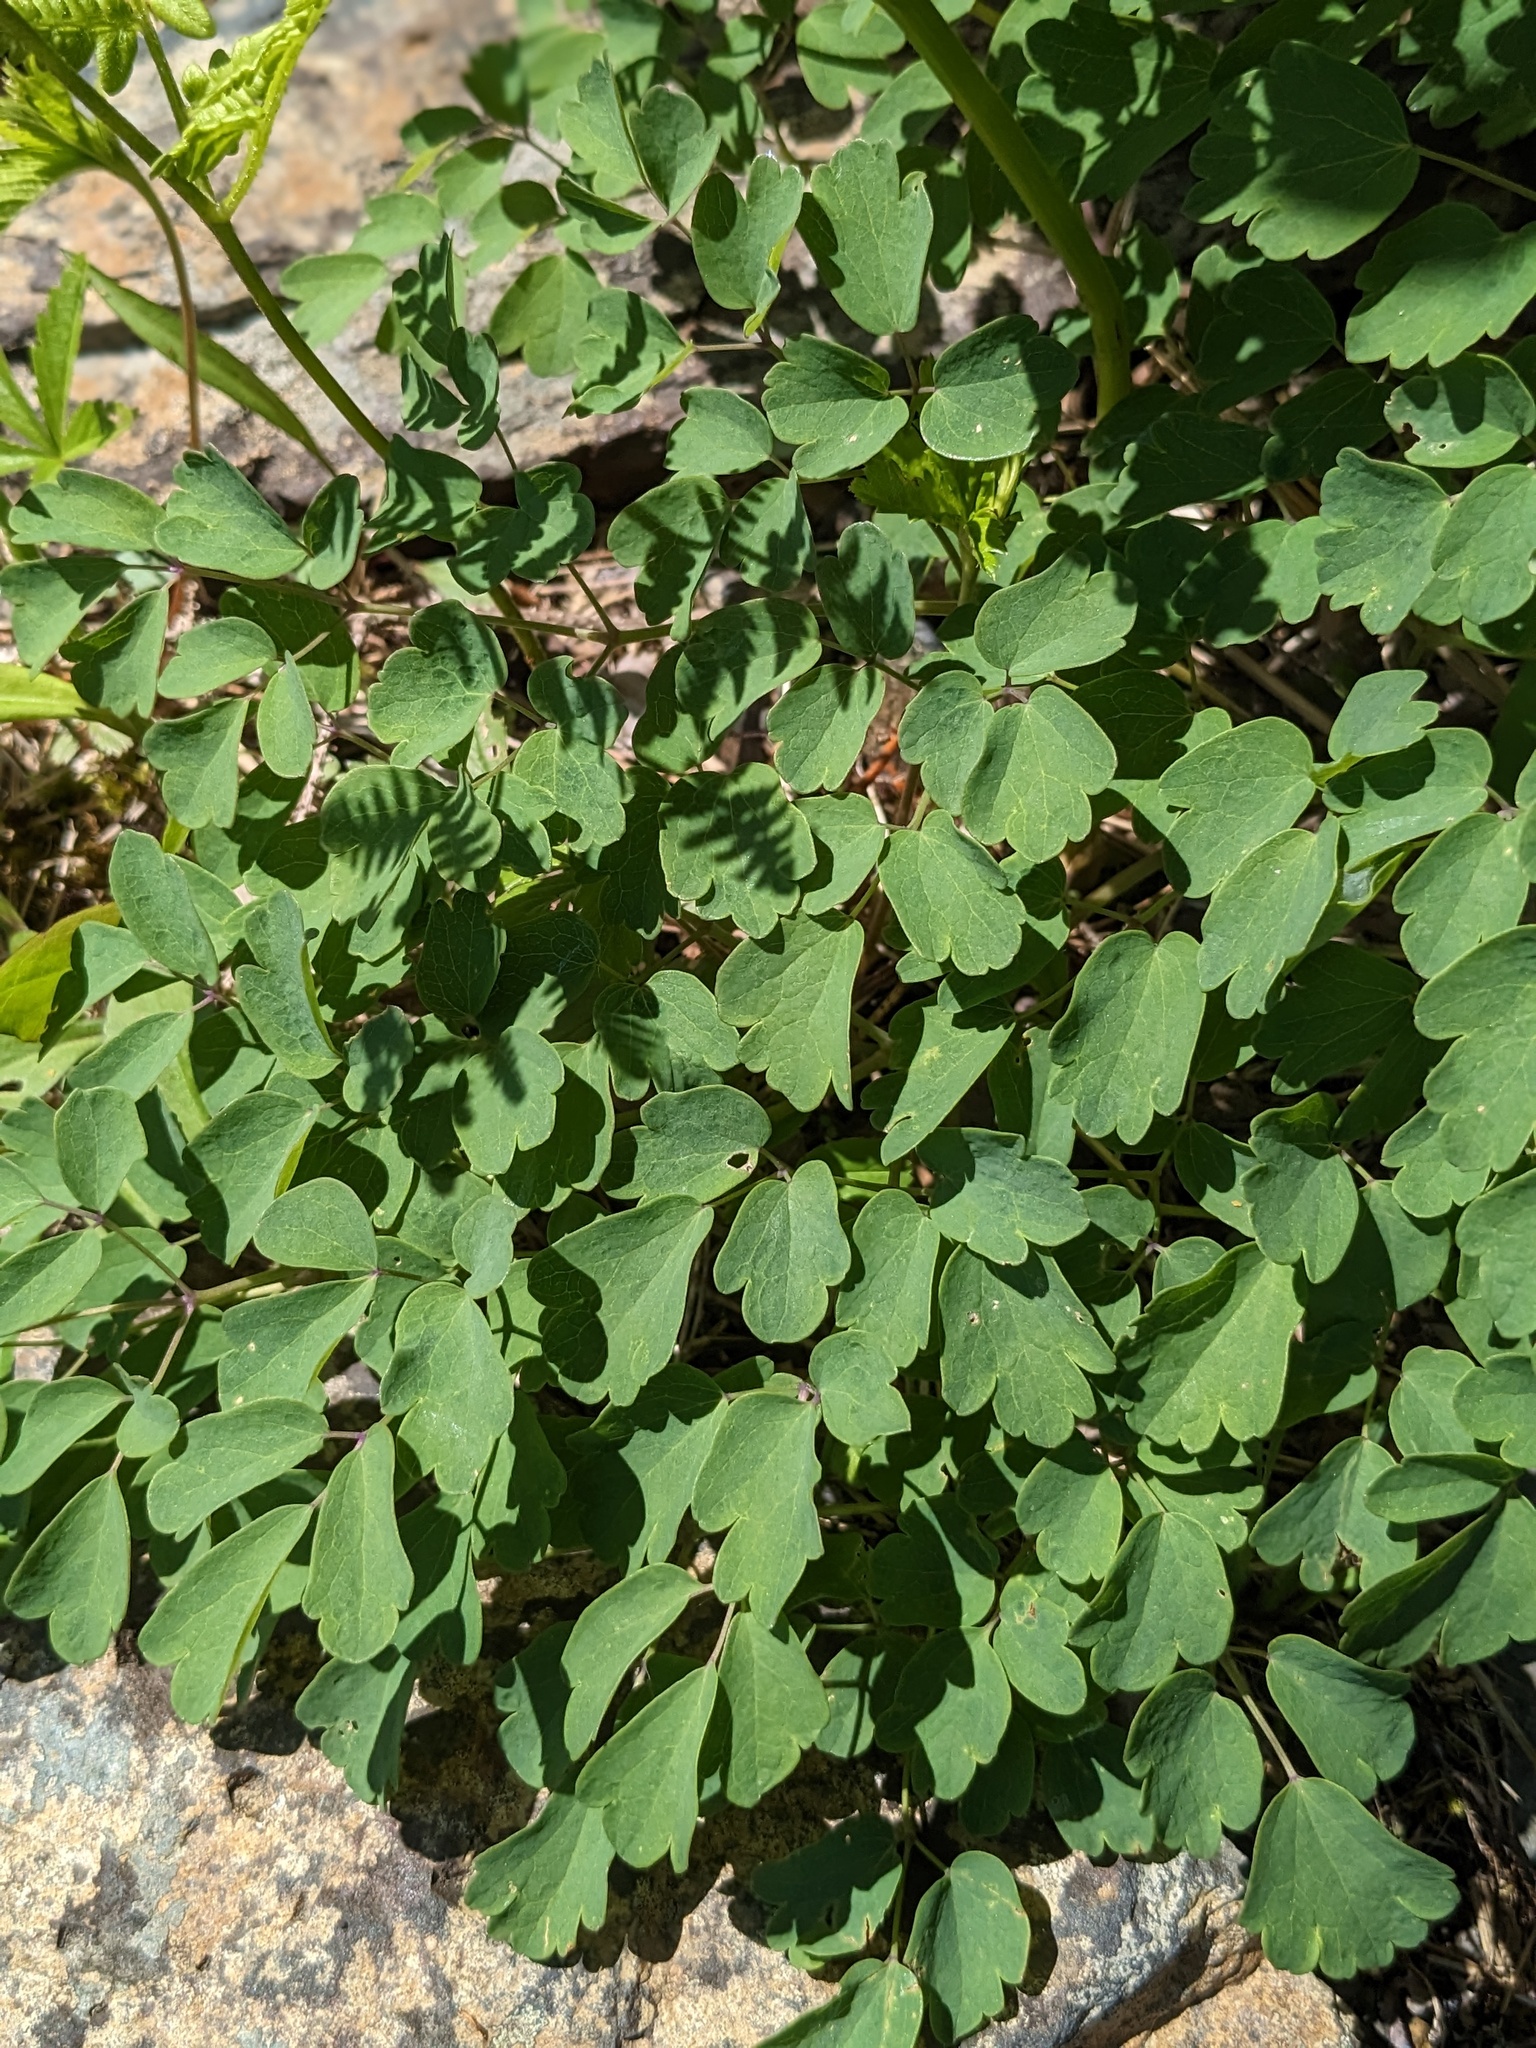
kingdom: Plantae
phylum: Tracheophyta
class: Magnoliopsida
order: Ranunculales
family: Ranunculaceae
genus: Thalictrum
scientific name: Thalictrum pubescens
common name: King-of-the-meadow
